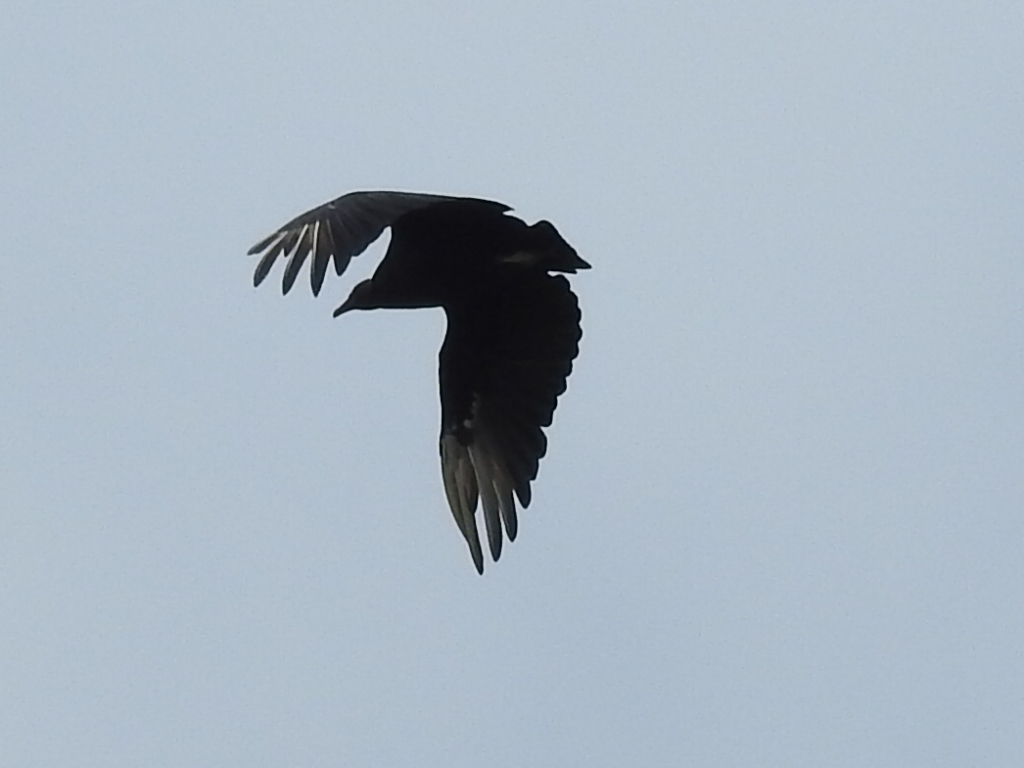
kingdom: Animalia
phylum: Chordata
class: Aves
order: Accipitriformes
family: Cathartidae
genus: Coragyps
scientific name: Coragyps atratus
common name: Black vulture
